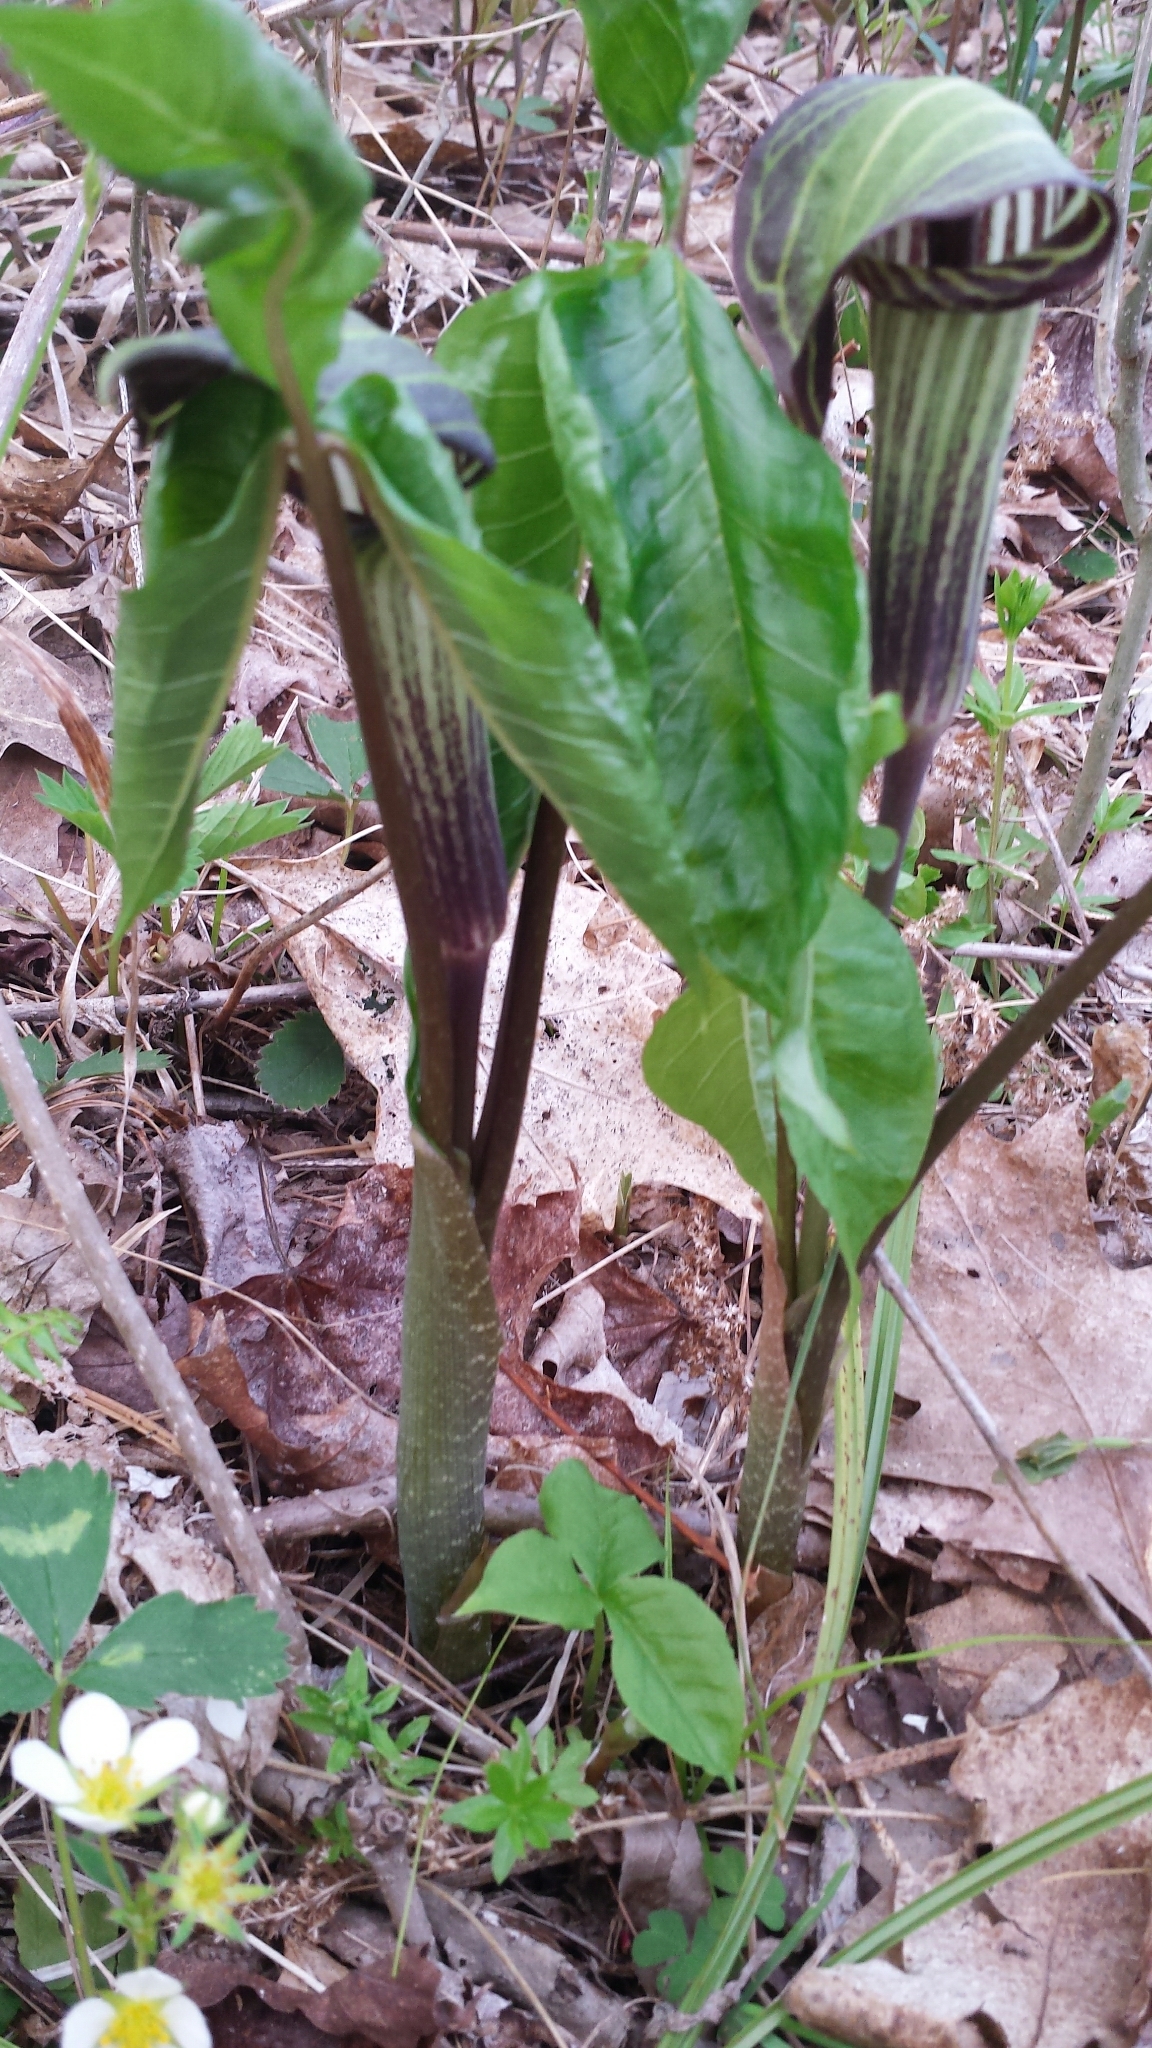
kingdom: Plantae
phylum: Tracheophyta
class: Liliopsida
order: Alismatales
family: Araceae
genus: Arisaema
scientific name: Arisaema triphyllum
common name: Jack-in-the-pulpit
